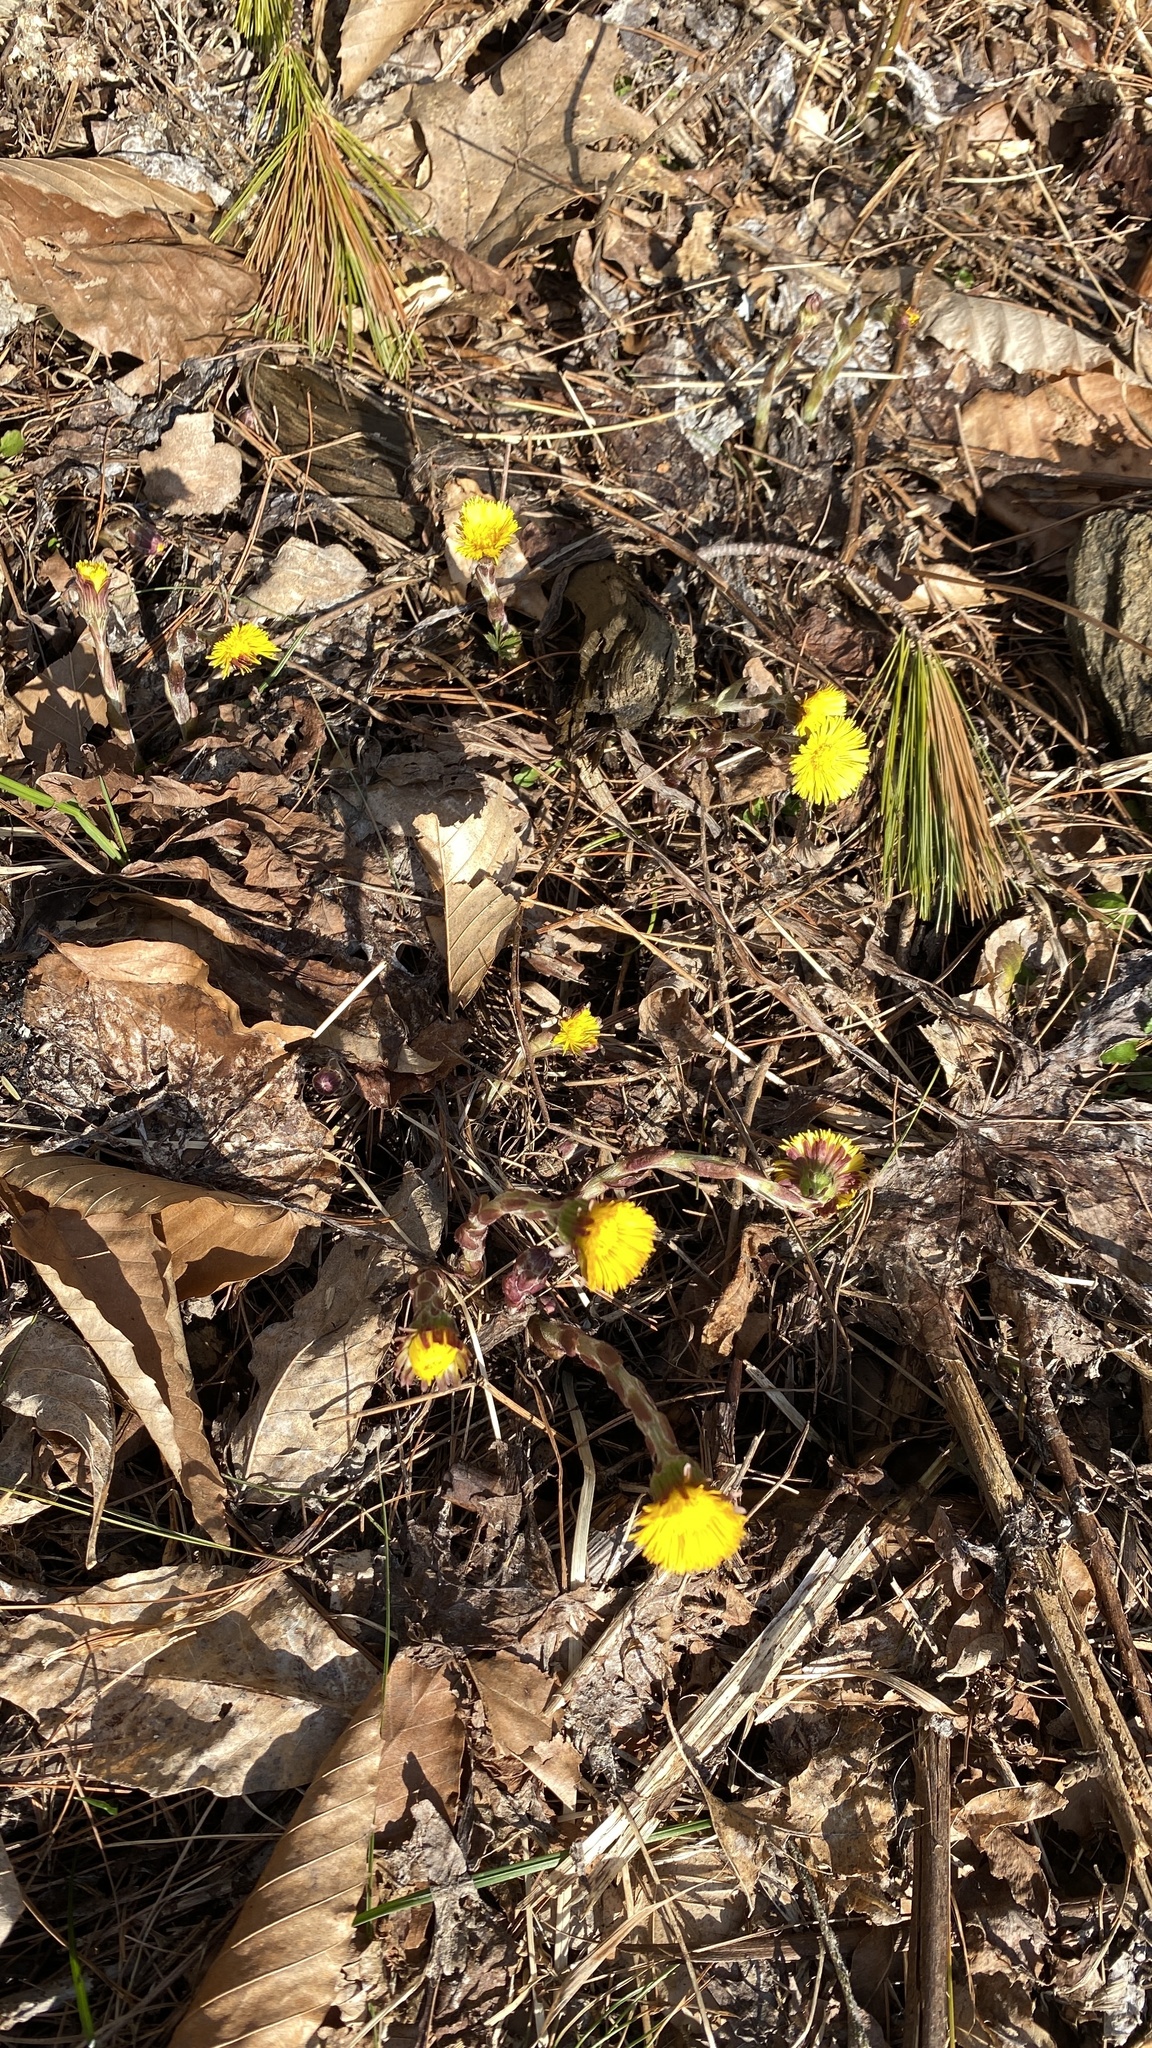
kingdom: Plantae
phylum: Tracheophyta
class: Magnoliopsida
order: Asterales
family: Asteraceae
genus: Tussilago
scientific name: Tussilago farfara
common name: Coltsfoot
